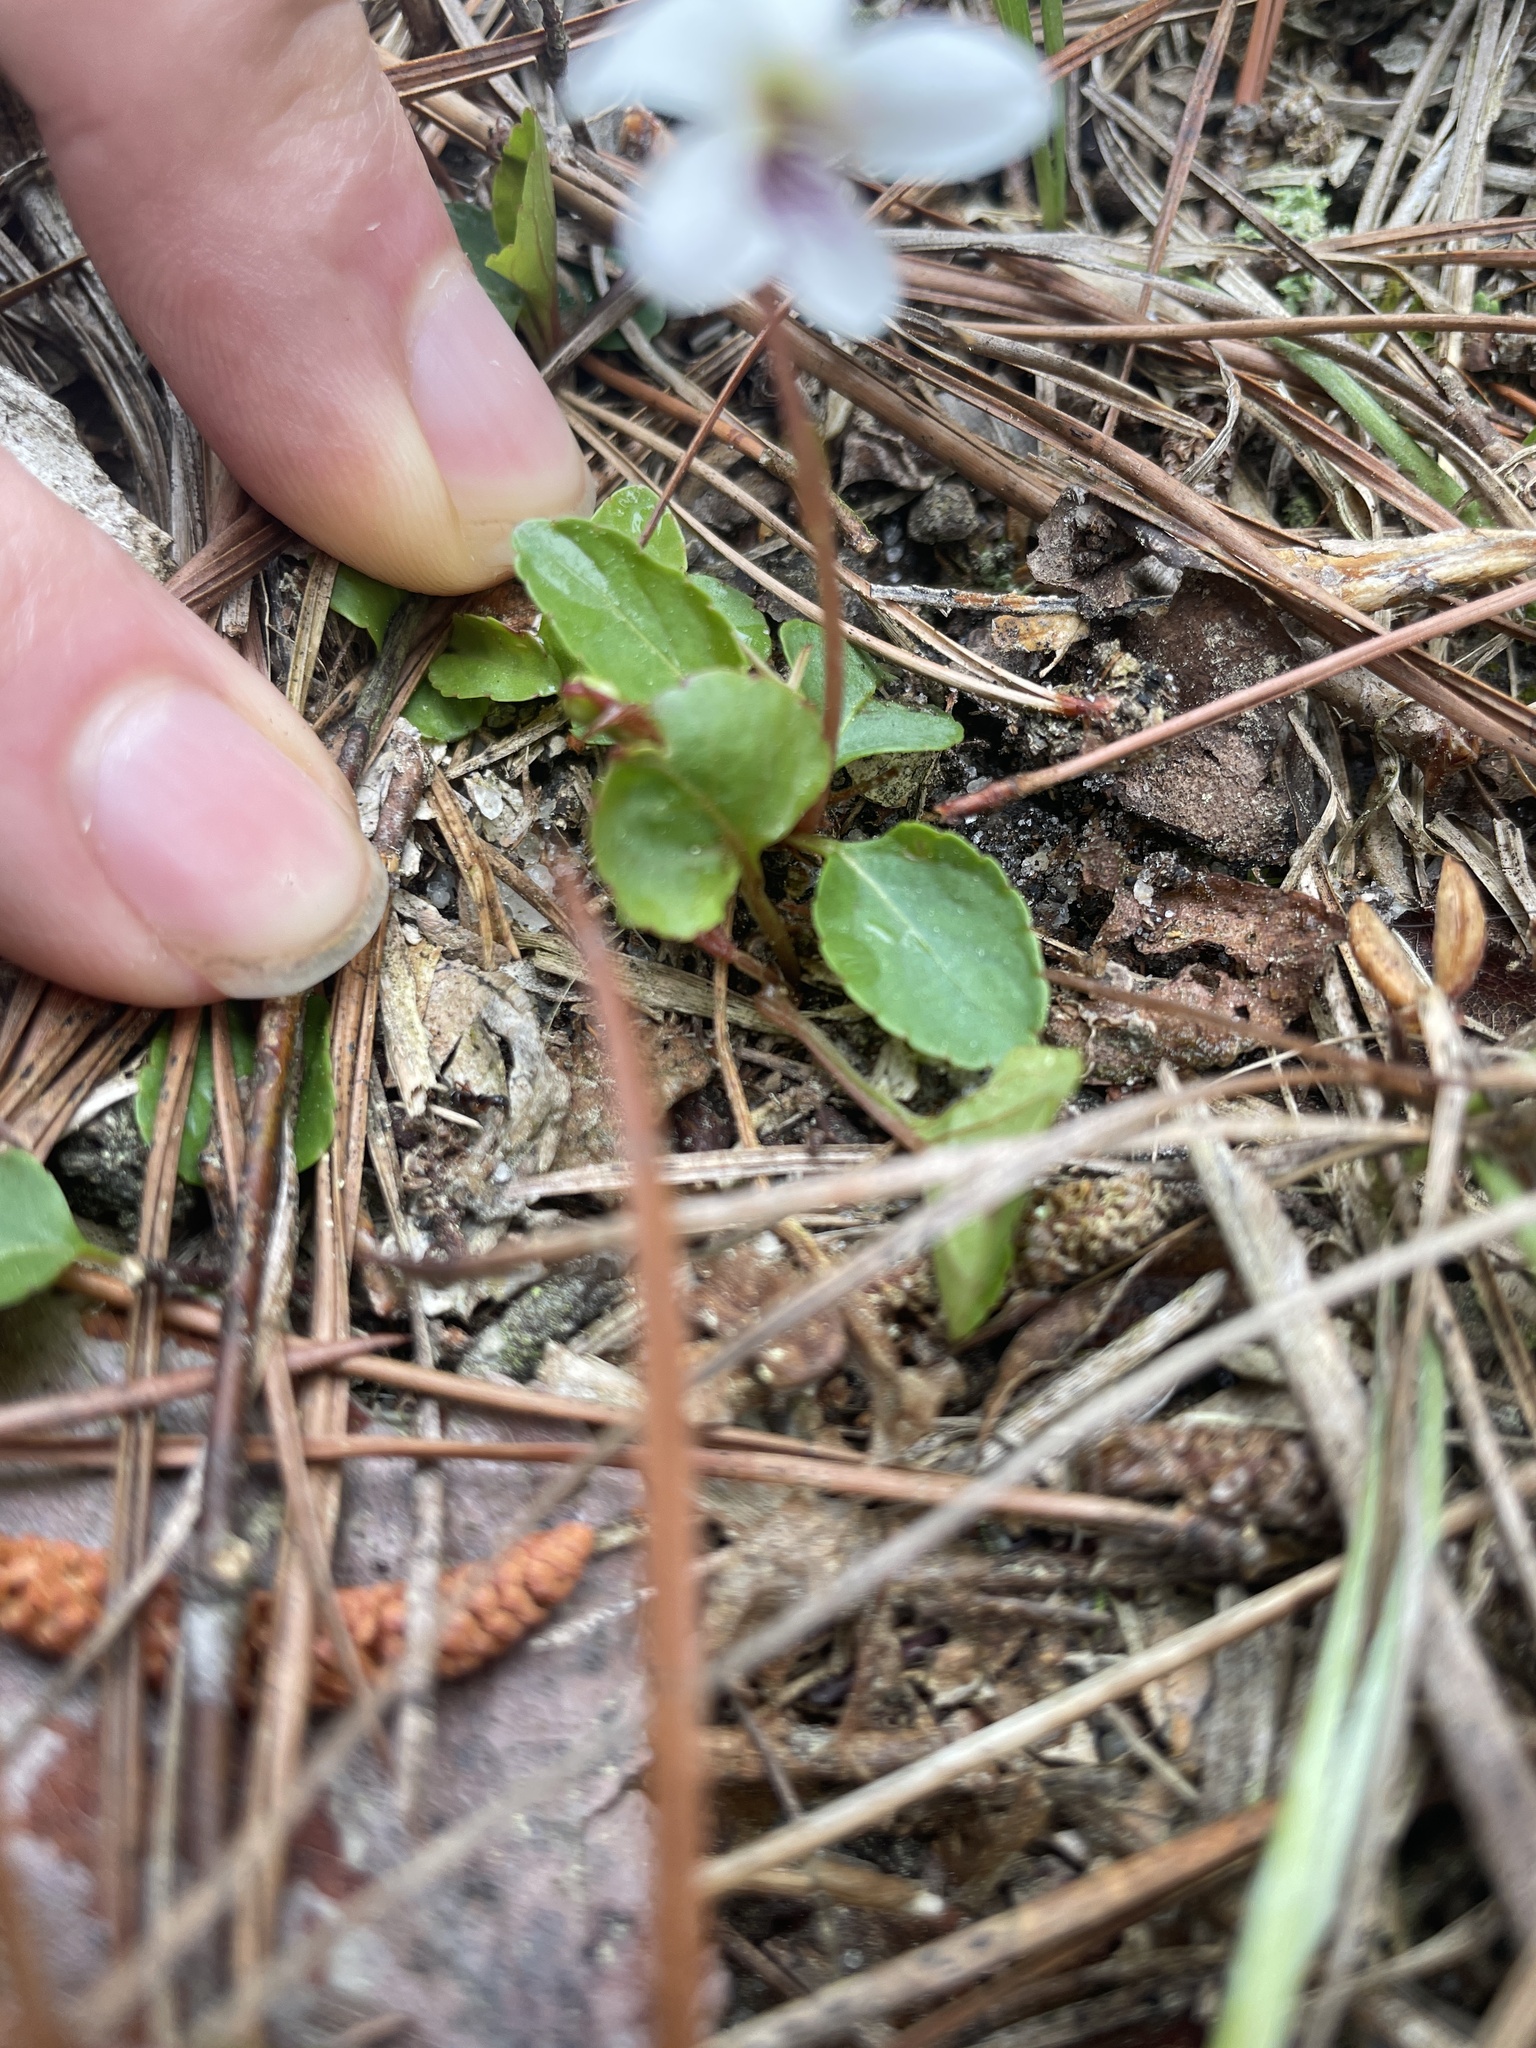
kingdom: Plantae
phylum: Tracheophyta
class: Magnoliopsida
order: Malpighiales
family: Violaceae
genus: Viola
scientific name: Viola primulifolia
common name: Primrose-leaf violet
